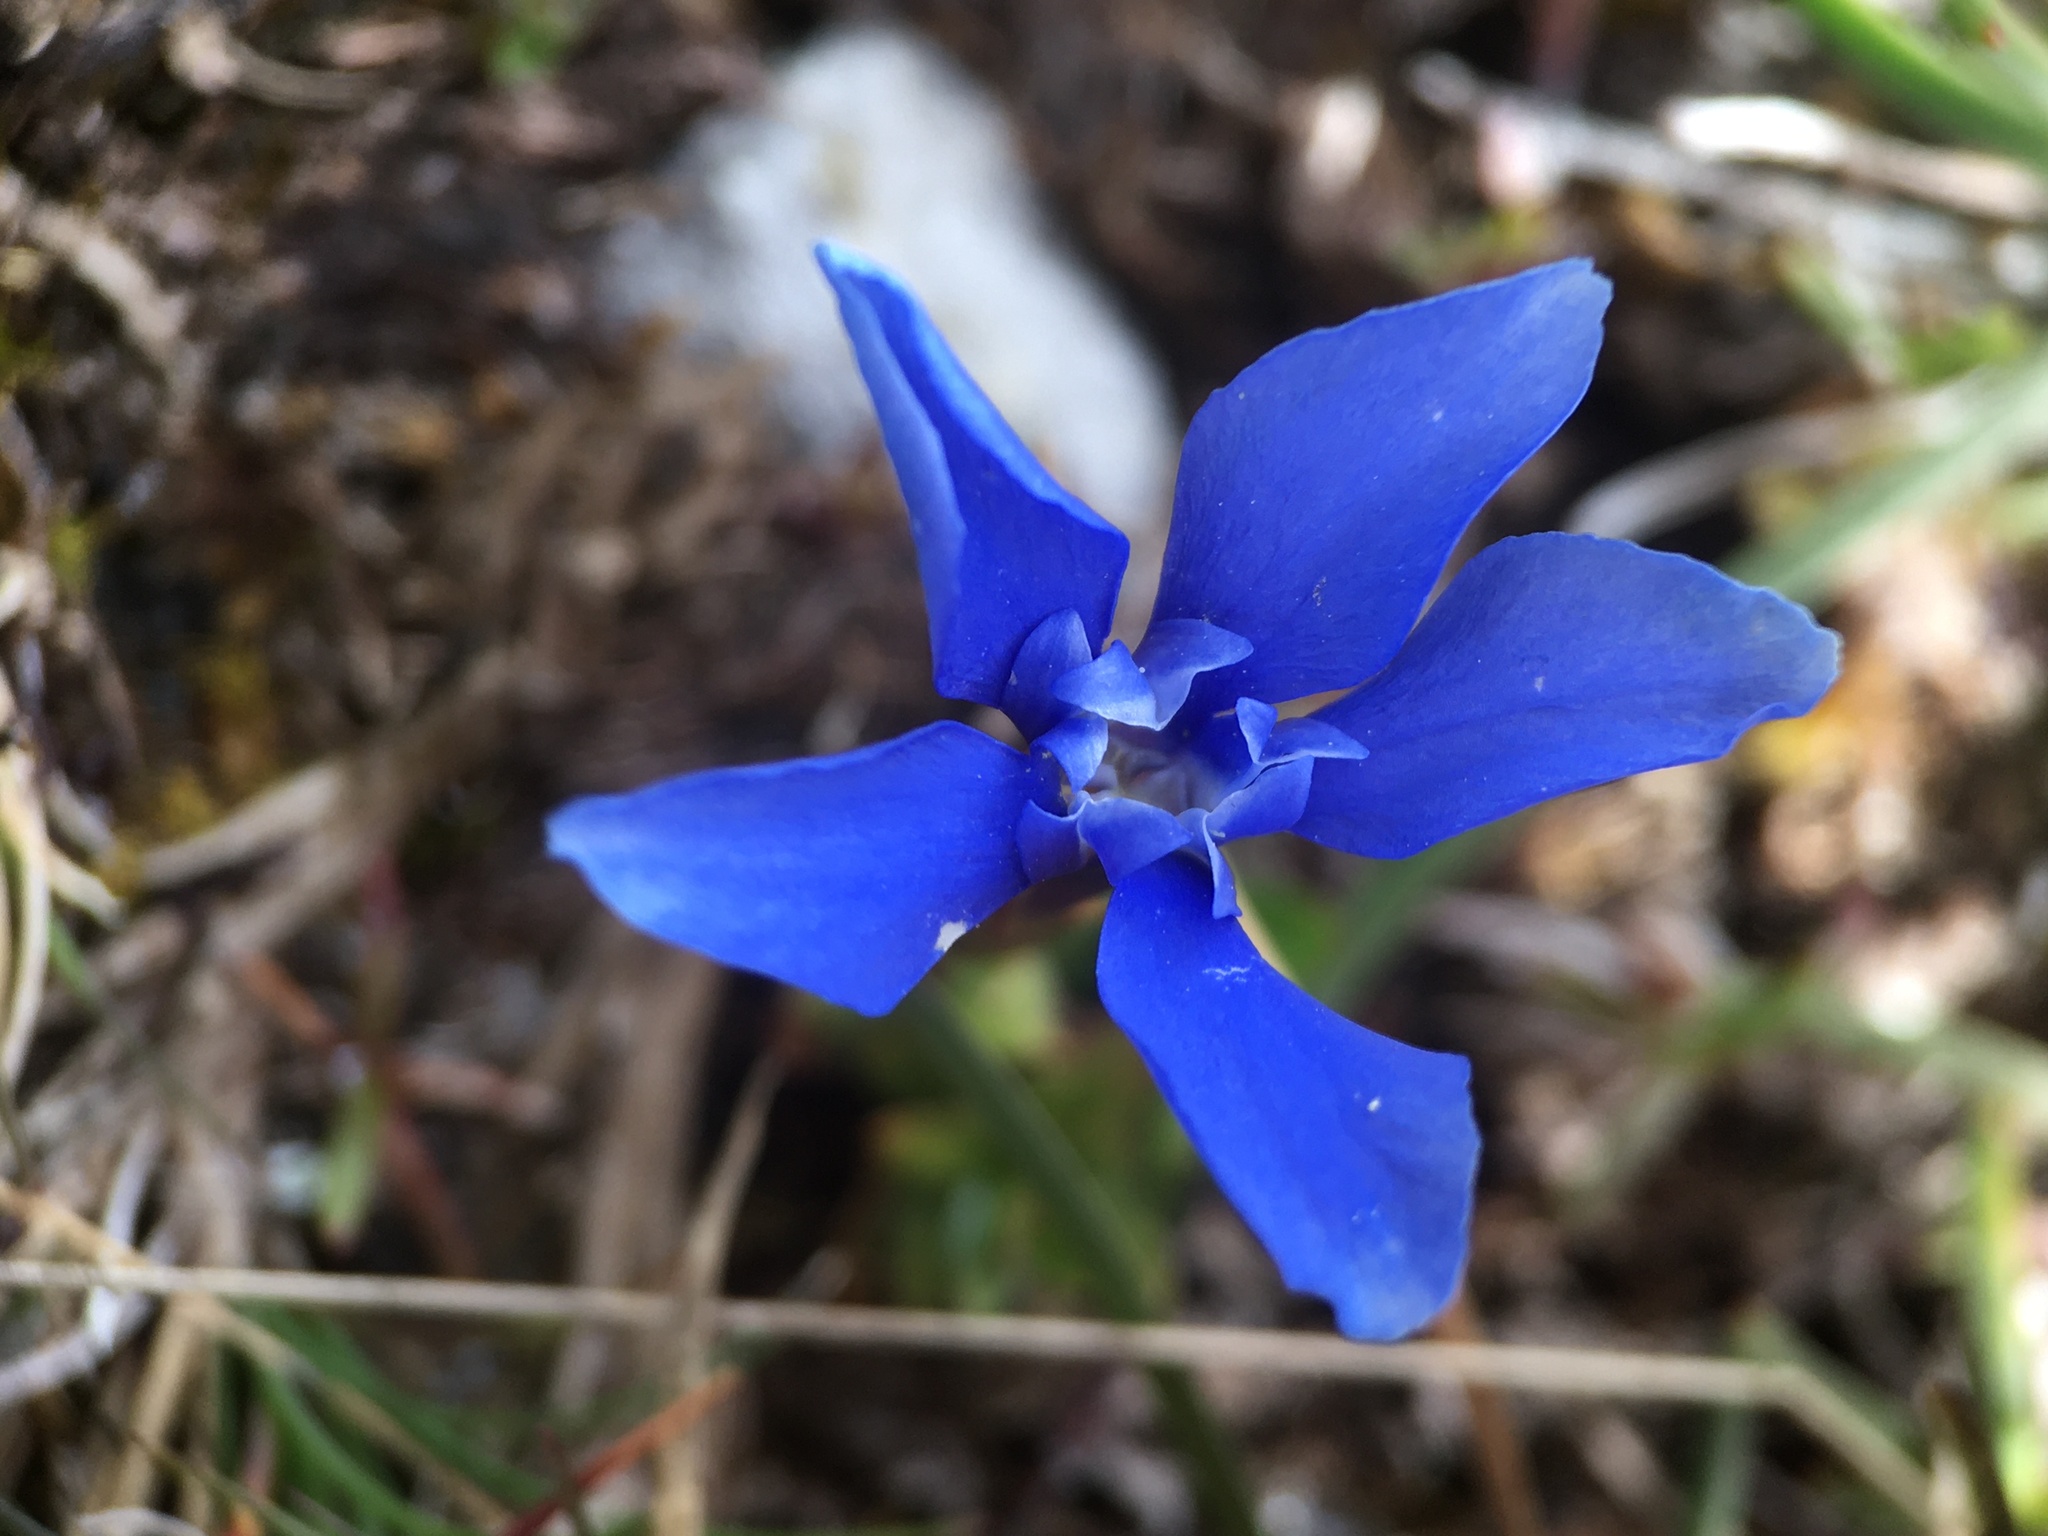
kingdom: Plantae
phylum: Tracheophyta
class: Magnoliopsida
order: Gentianales
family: Gentianaceae
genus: Gentiana
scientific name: Gentiana verna
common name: Spring gentian
